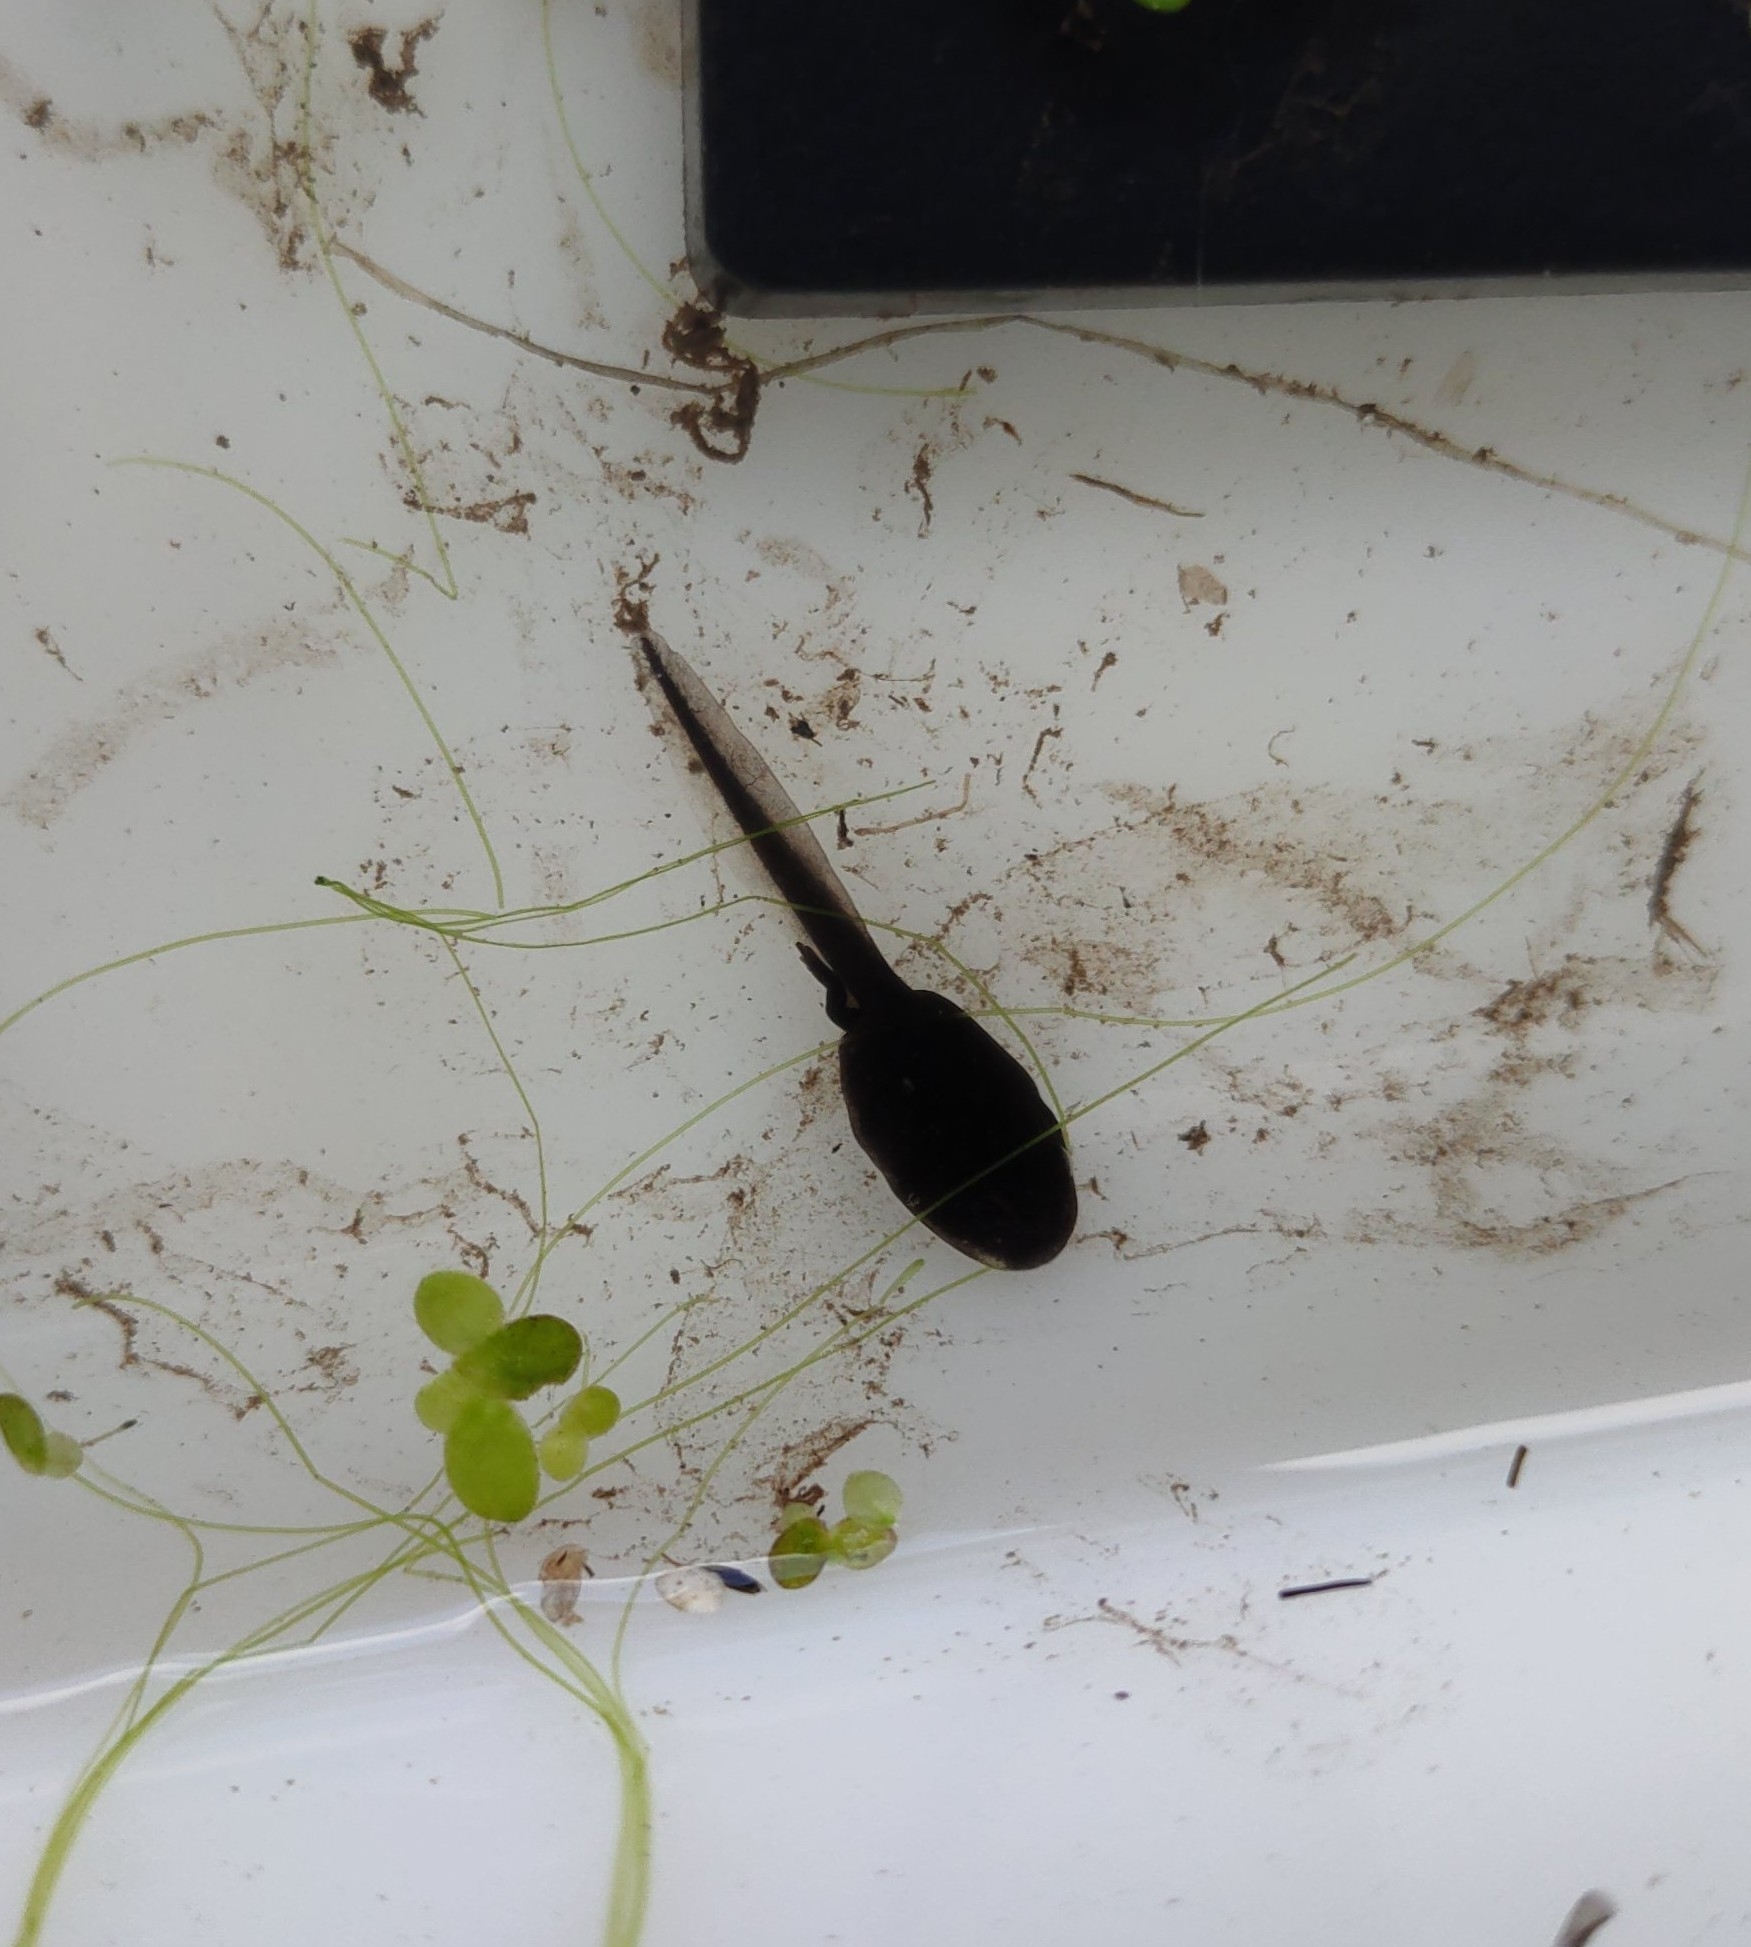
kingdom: Animalia
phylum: Chordata
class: Amphibia
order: Anura
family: Bufonidae
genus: Bufo
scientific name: Bufo bufo
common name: Common toad
